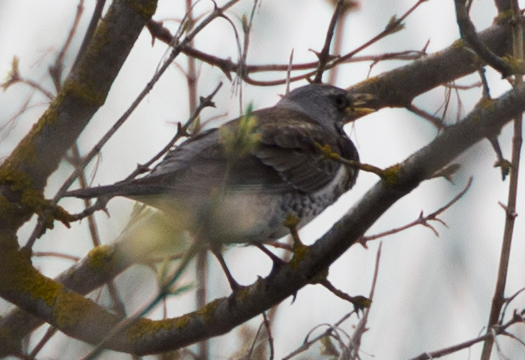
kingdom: Animalia
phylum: Chordata
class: Aves
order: Passeriformes
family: Turdidae
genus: Turdus
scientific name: Turdus pilaris
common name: Fieldfare
